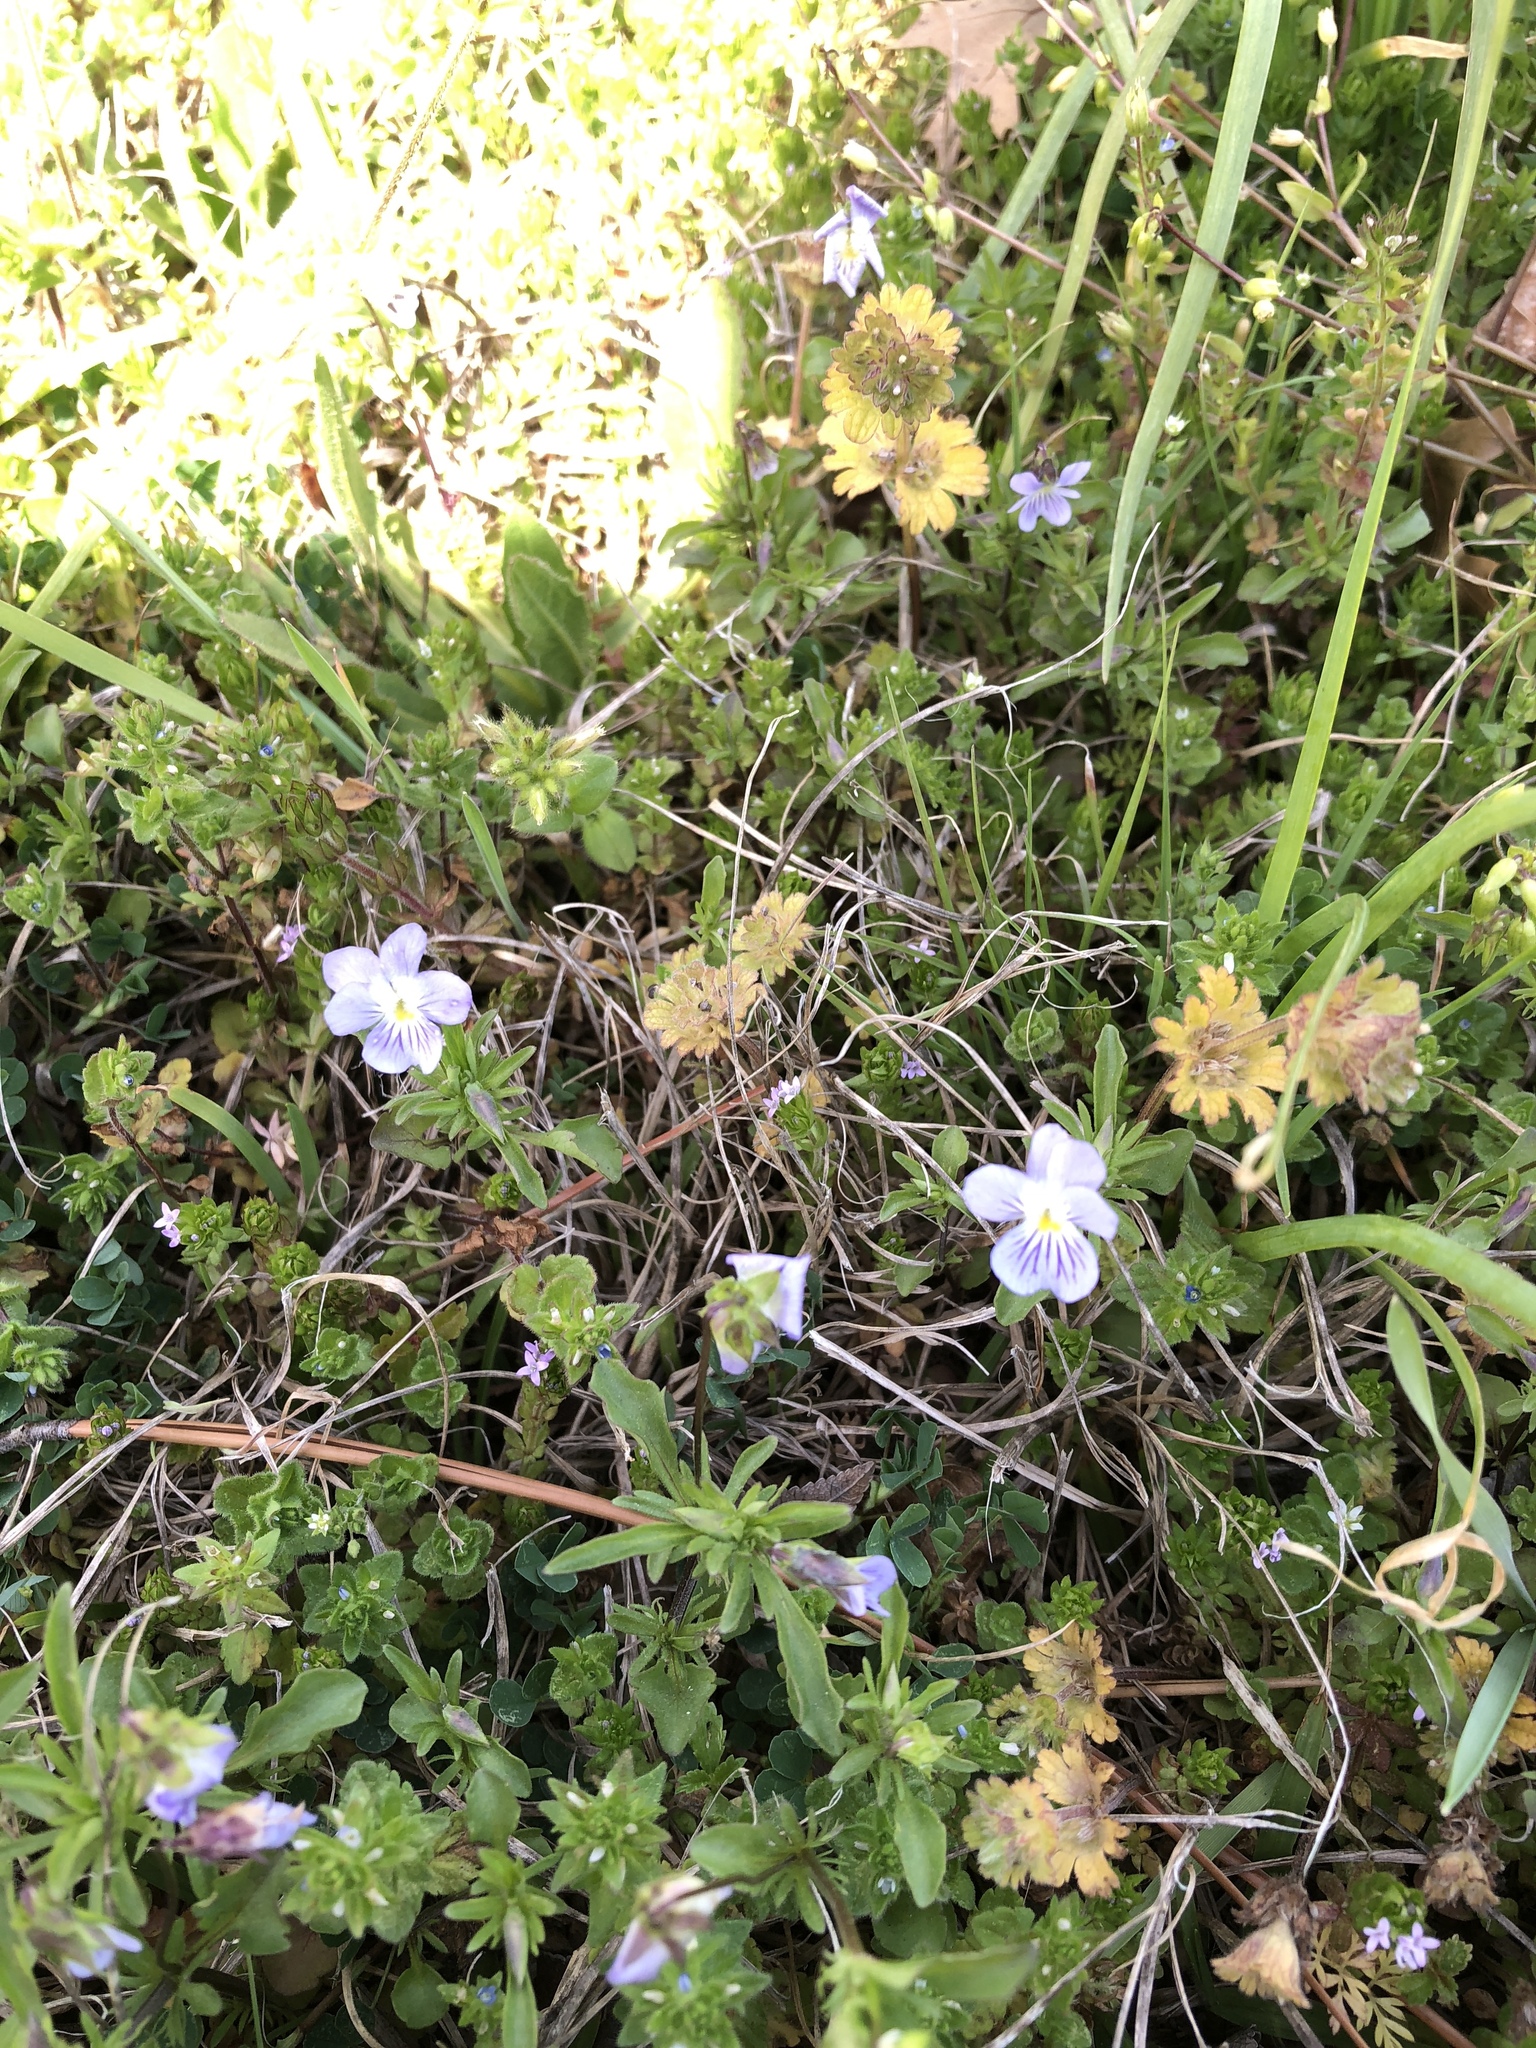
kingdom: Plantae
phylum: Tracheophyta
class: Magnoliopsida
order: Malpighiales
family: Violaceae
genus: Viola
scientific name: Viola rafinesquei
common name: American field pansy
